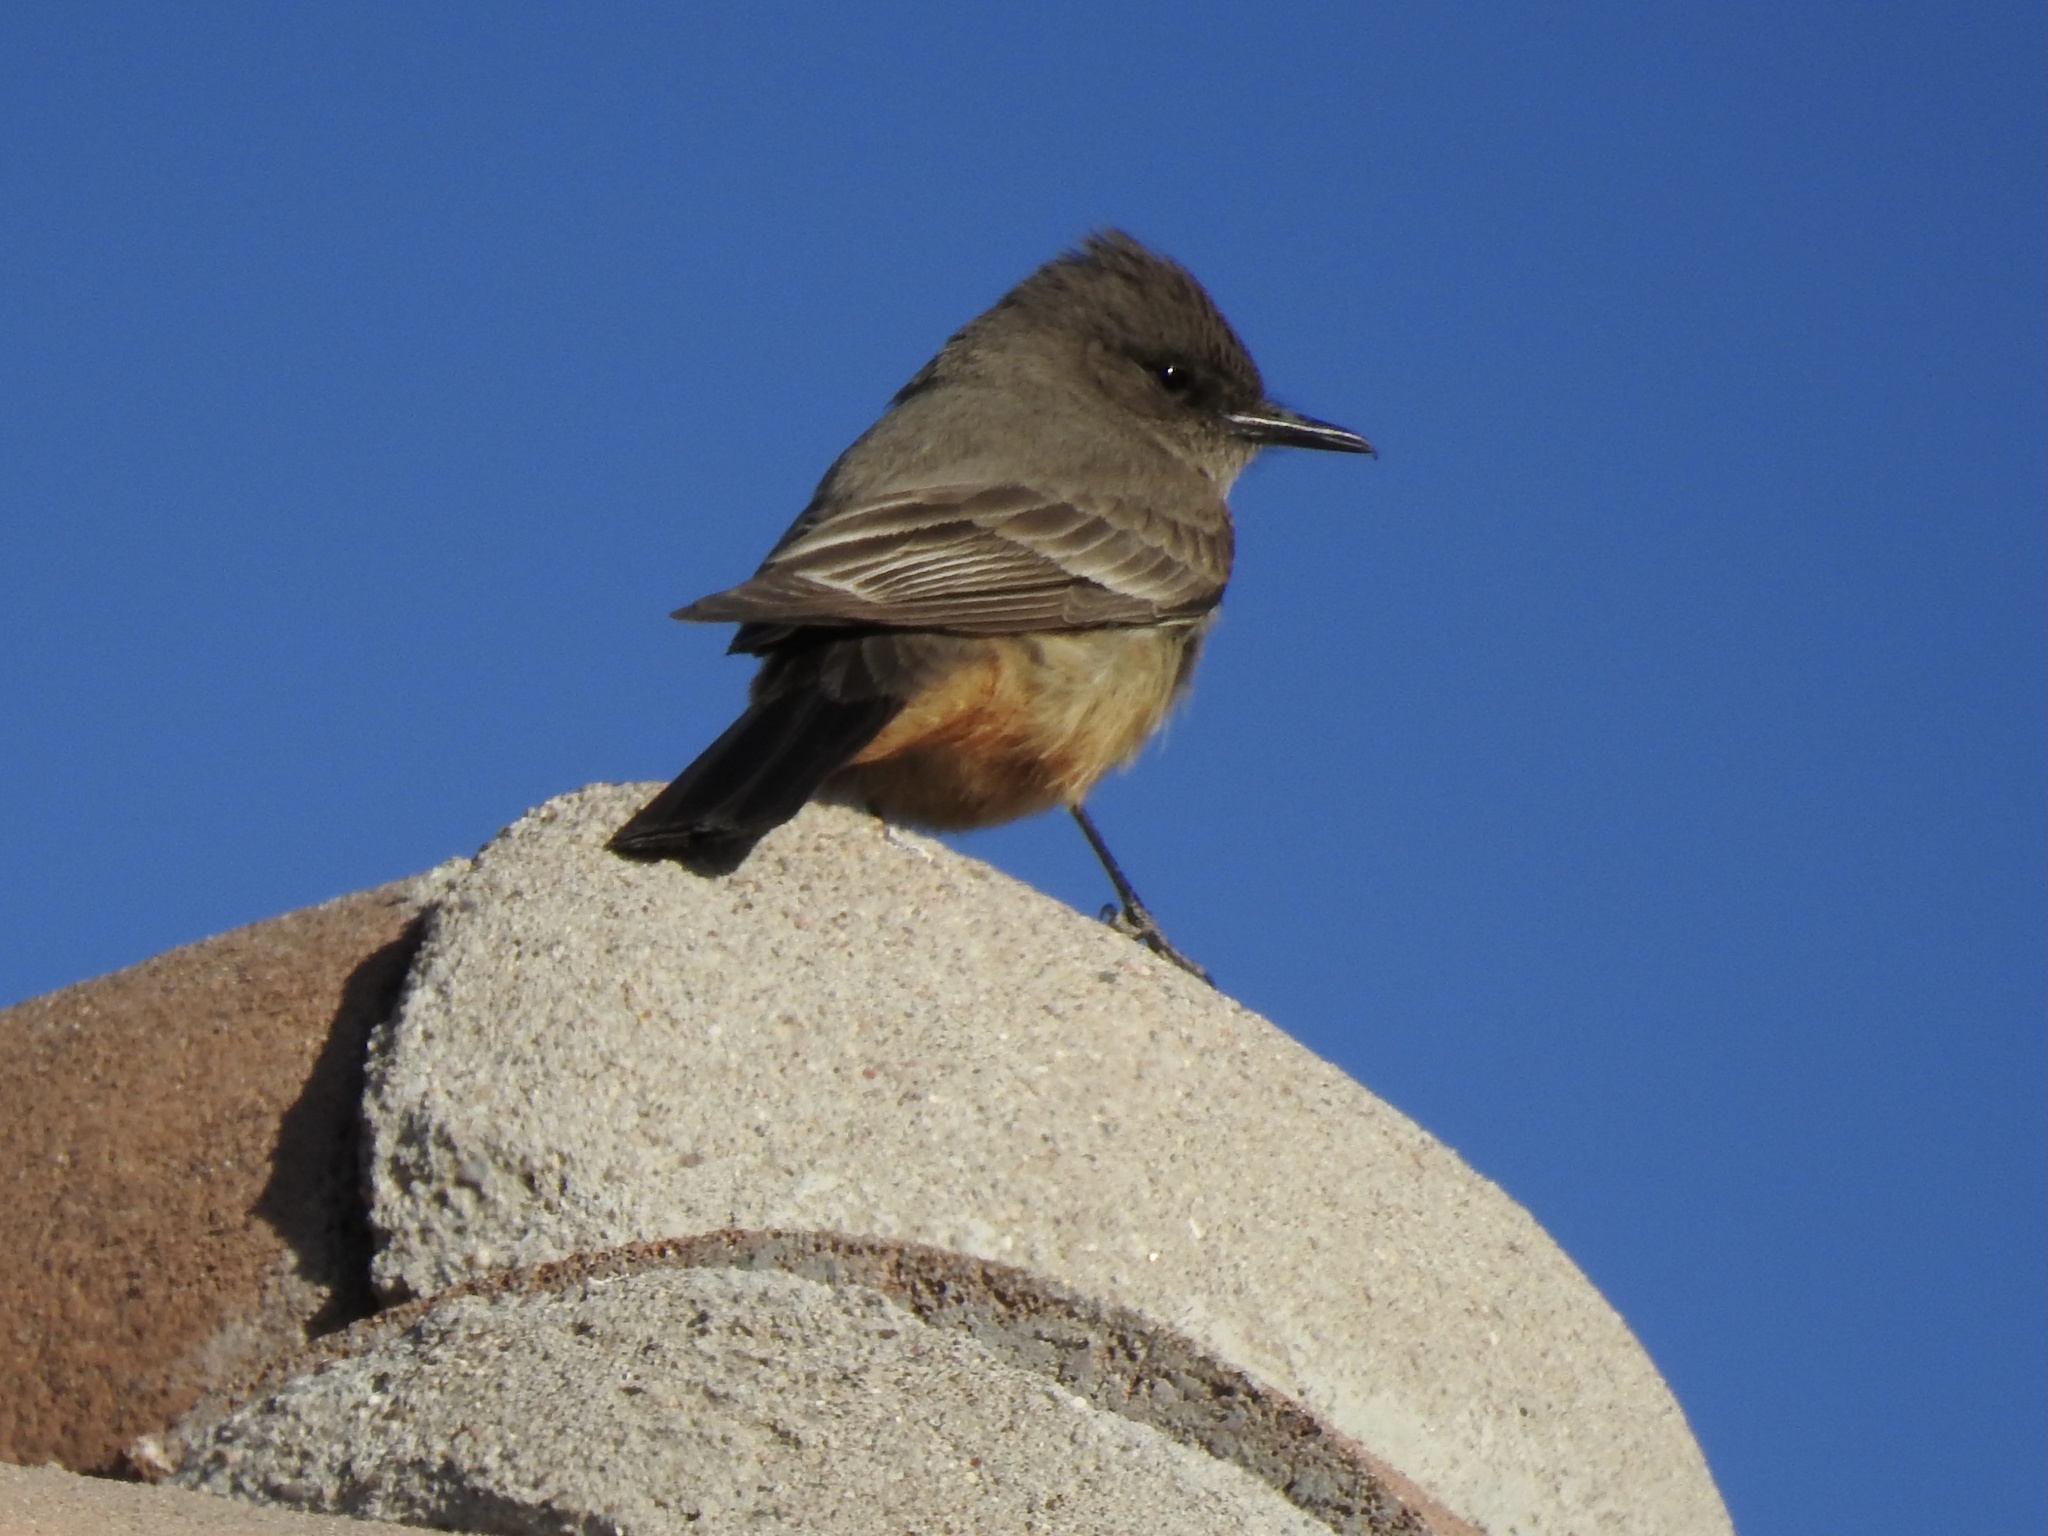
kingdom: Animalia
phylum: Chordata
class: Aves
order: Passeriformes
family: Tyrannidae
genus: Sayornis
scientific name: Sayornis saya
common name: Say's phoebe
